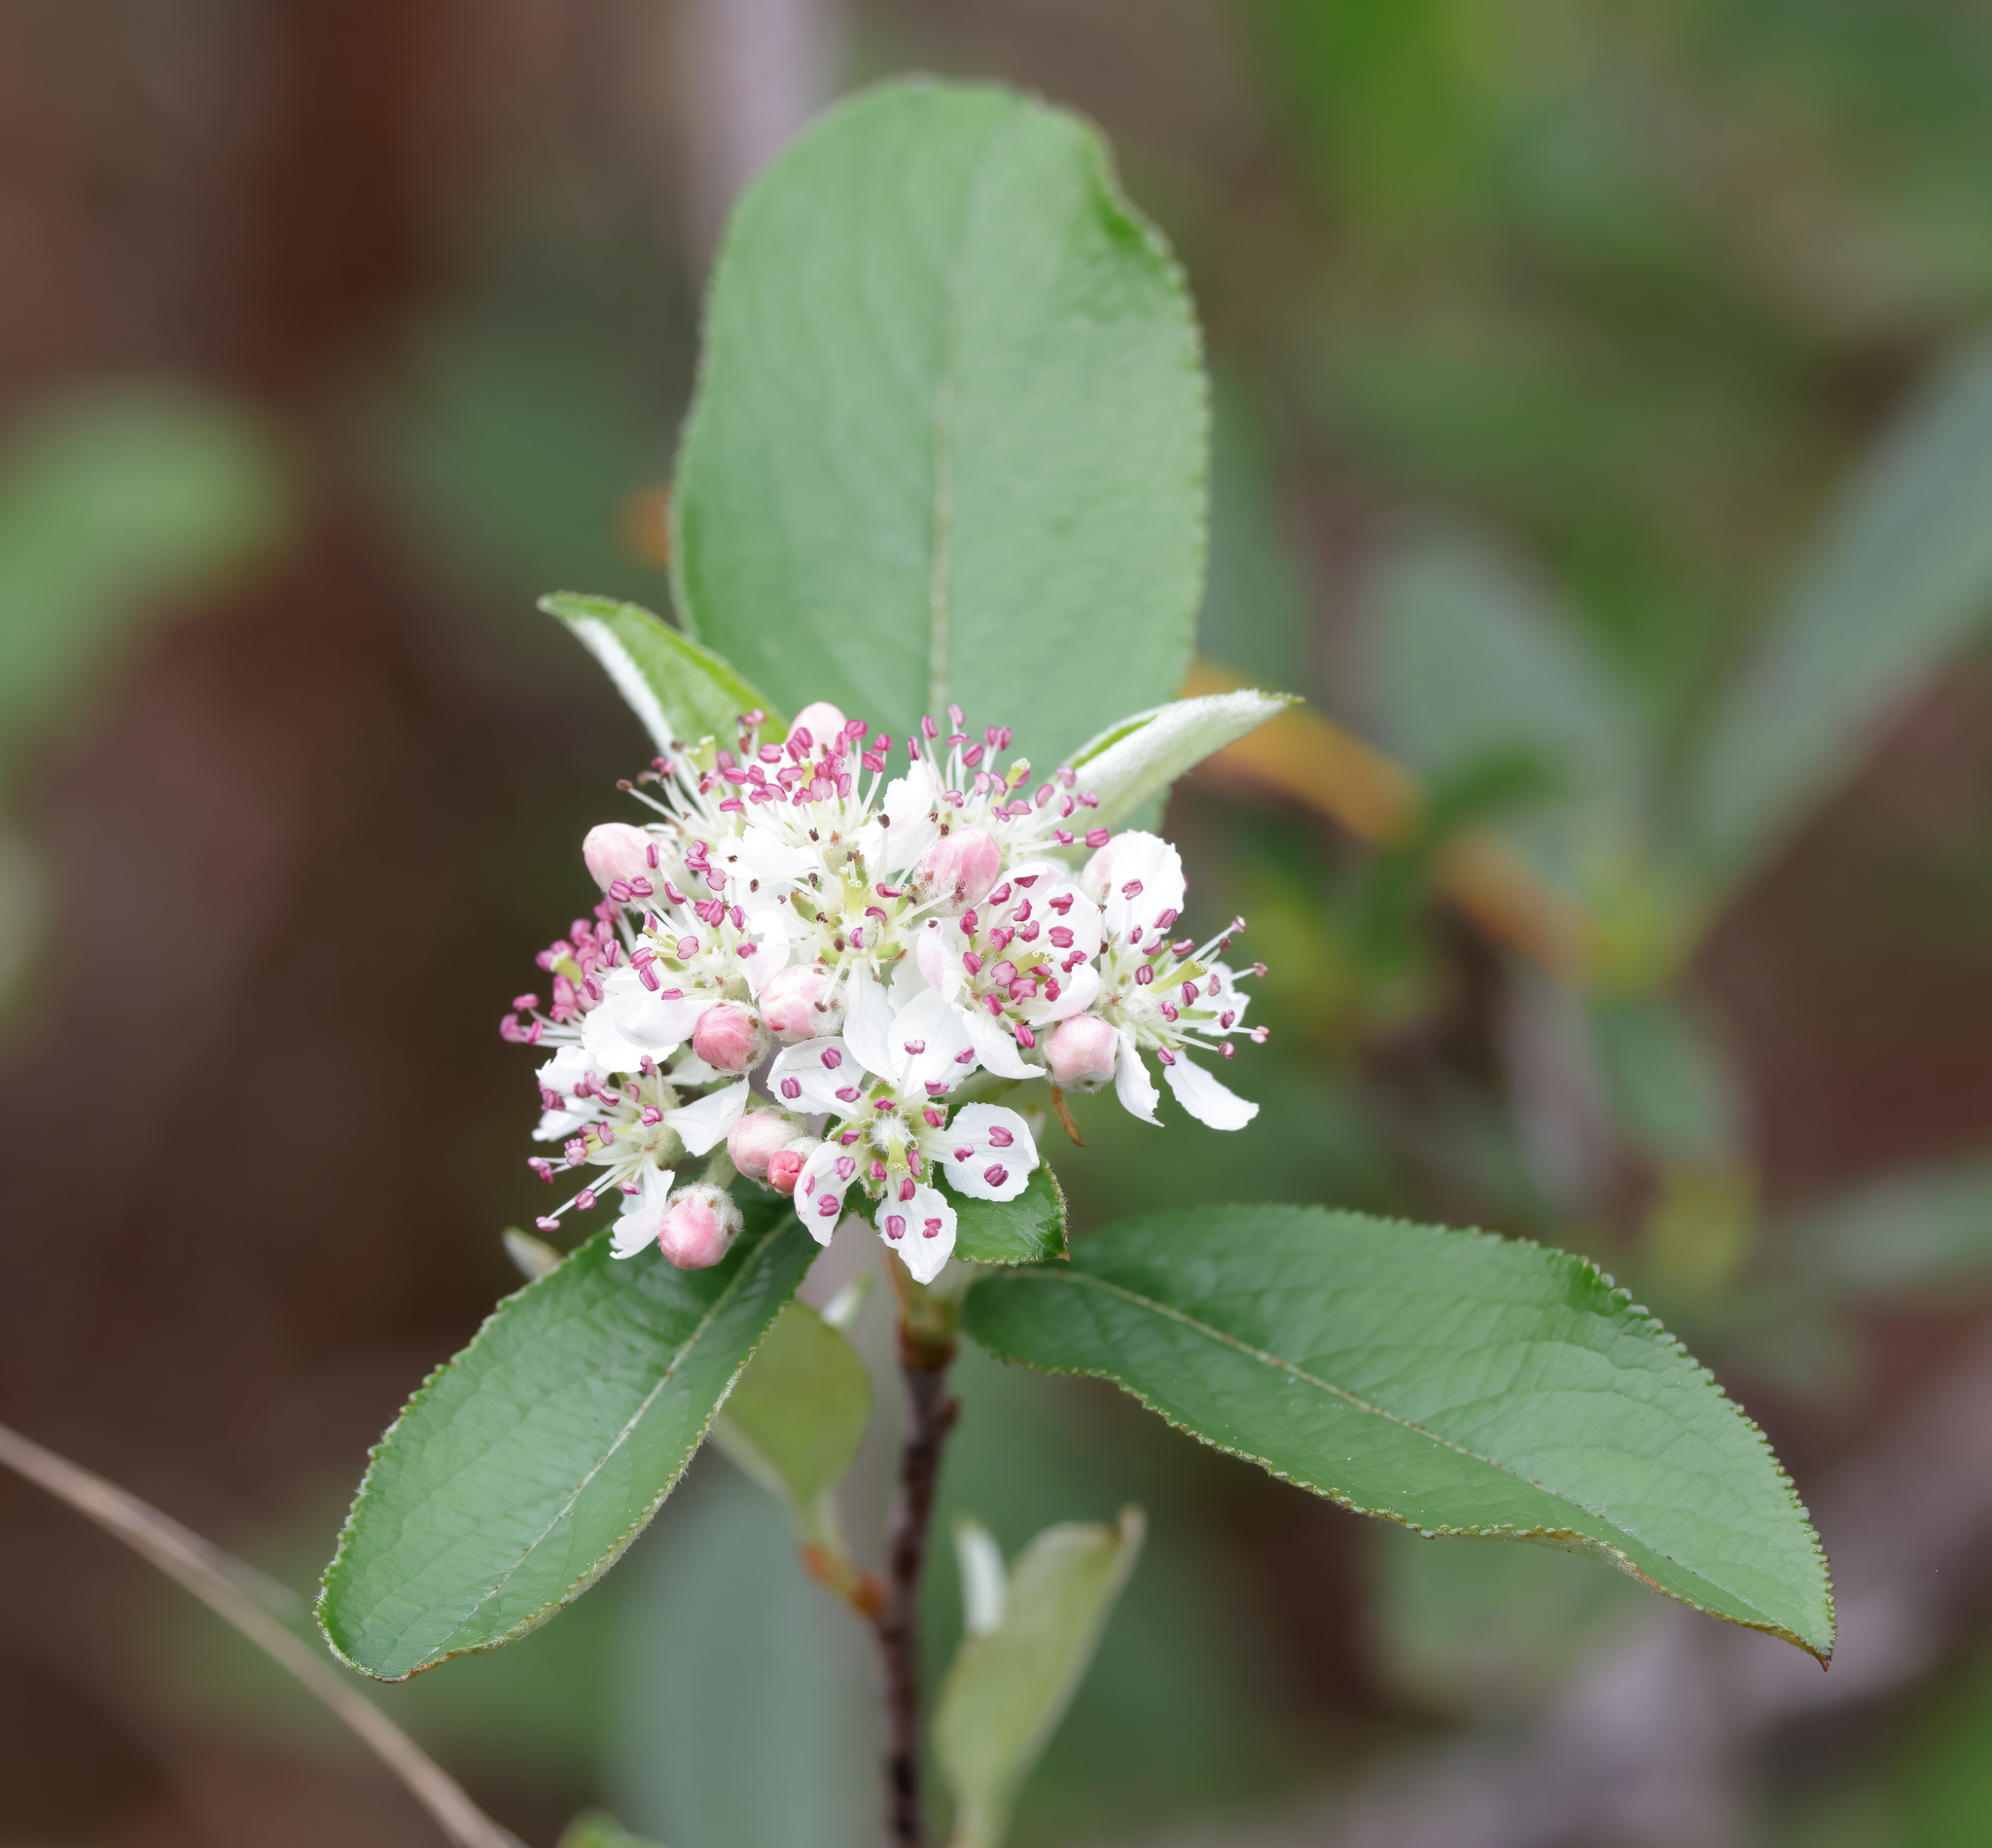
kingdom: Plantae
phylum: Tracheophyta
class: Magnoliopsida
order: Rosales
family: Rosaceae
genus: Aronia
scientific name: Aronia arbutifolia
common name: Red chokeberry
